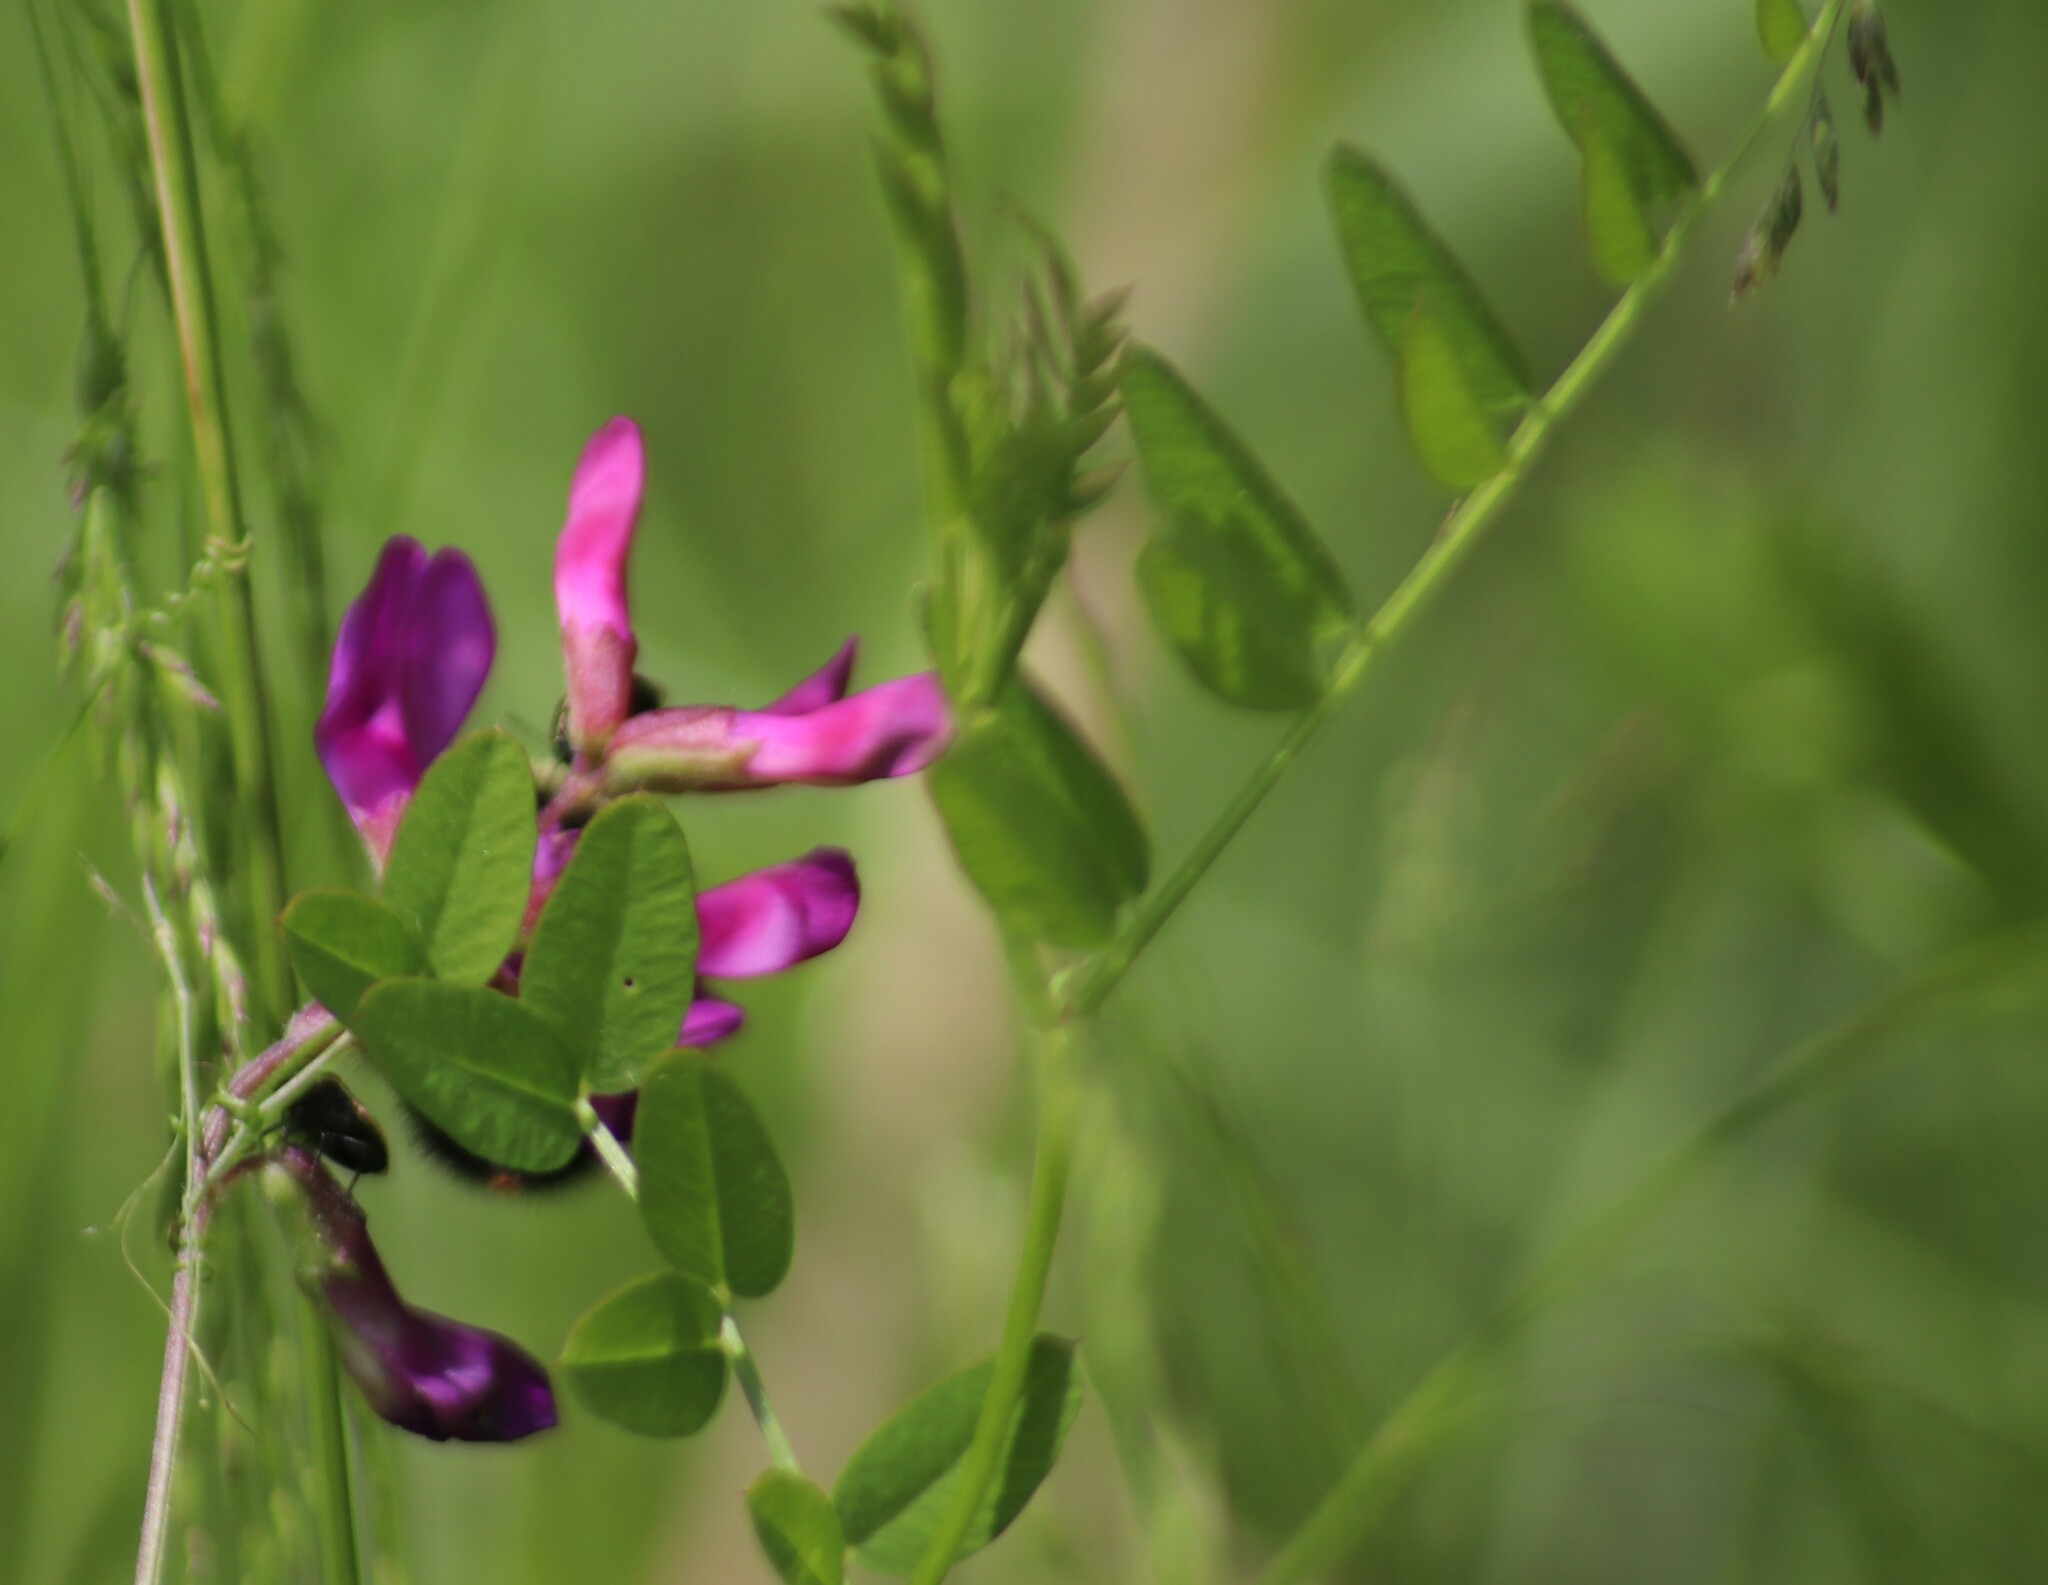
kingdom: Plantae
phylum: Tracheophyta
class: Magnoliopsida
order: Fabales
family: Fabaceae
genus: Vicia
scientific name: Vicia americana
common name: American vetch
